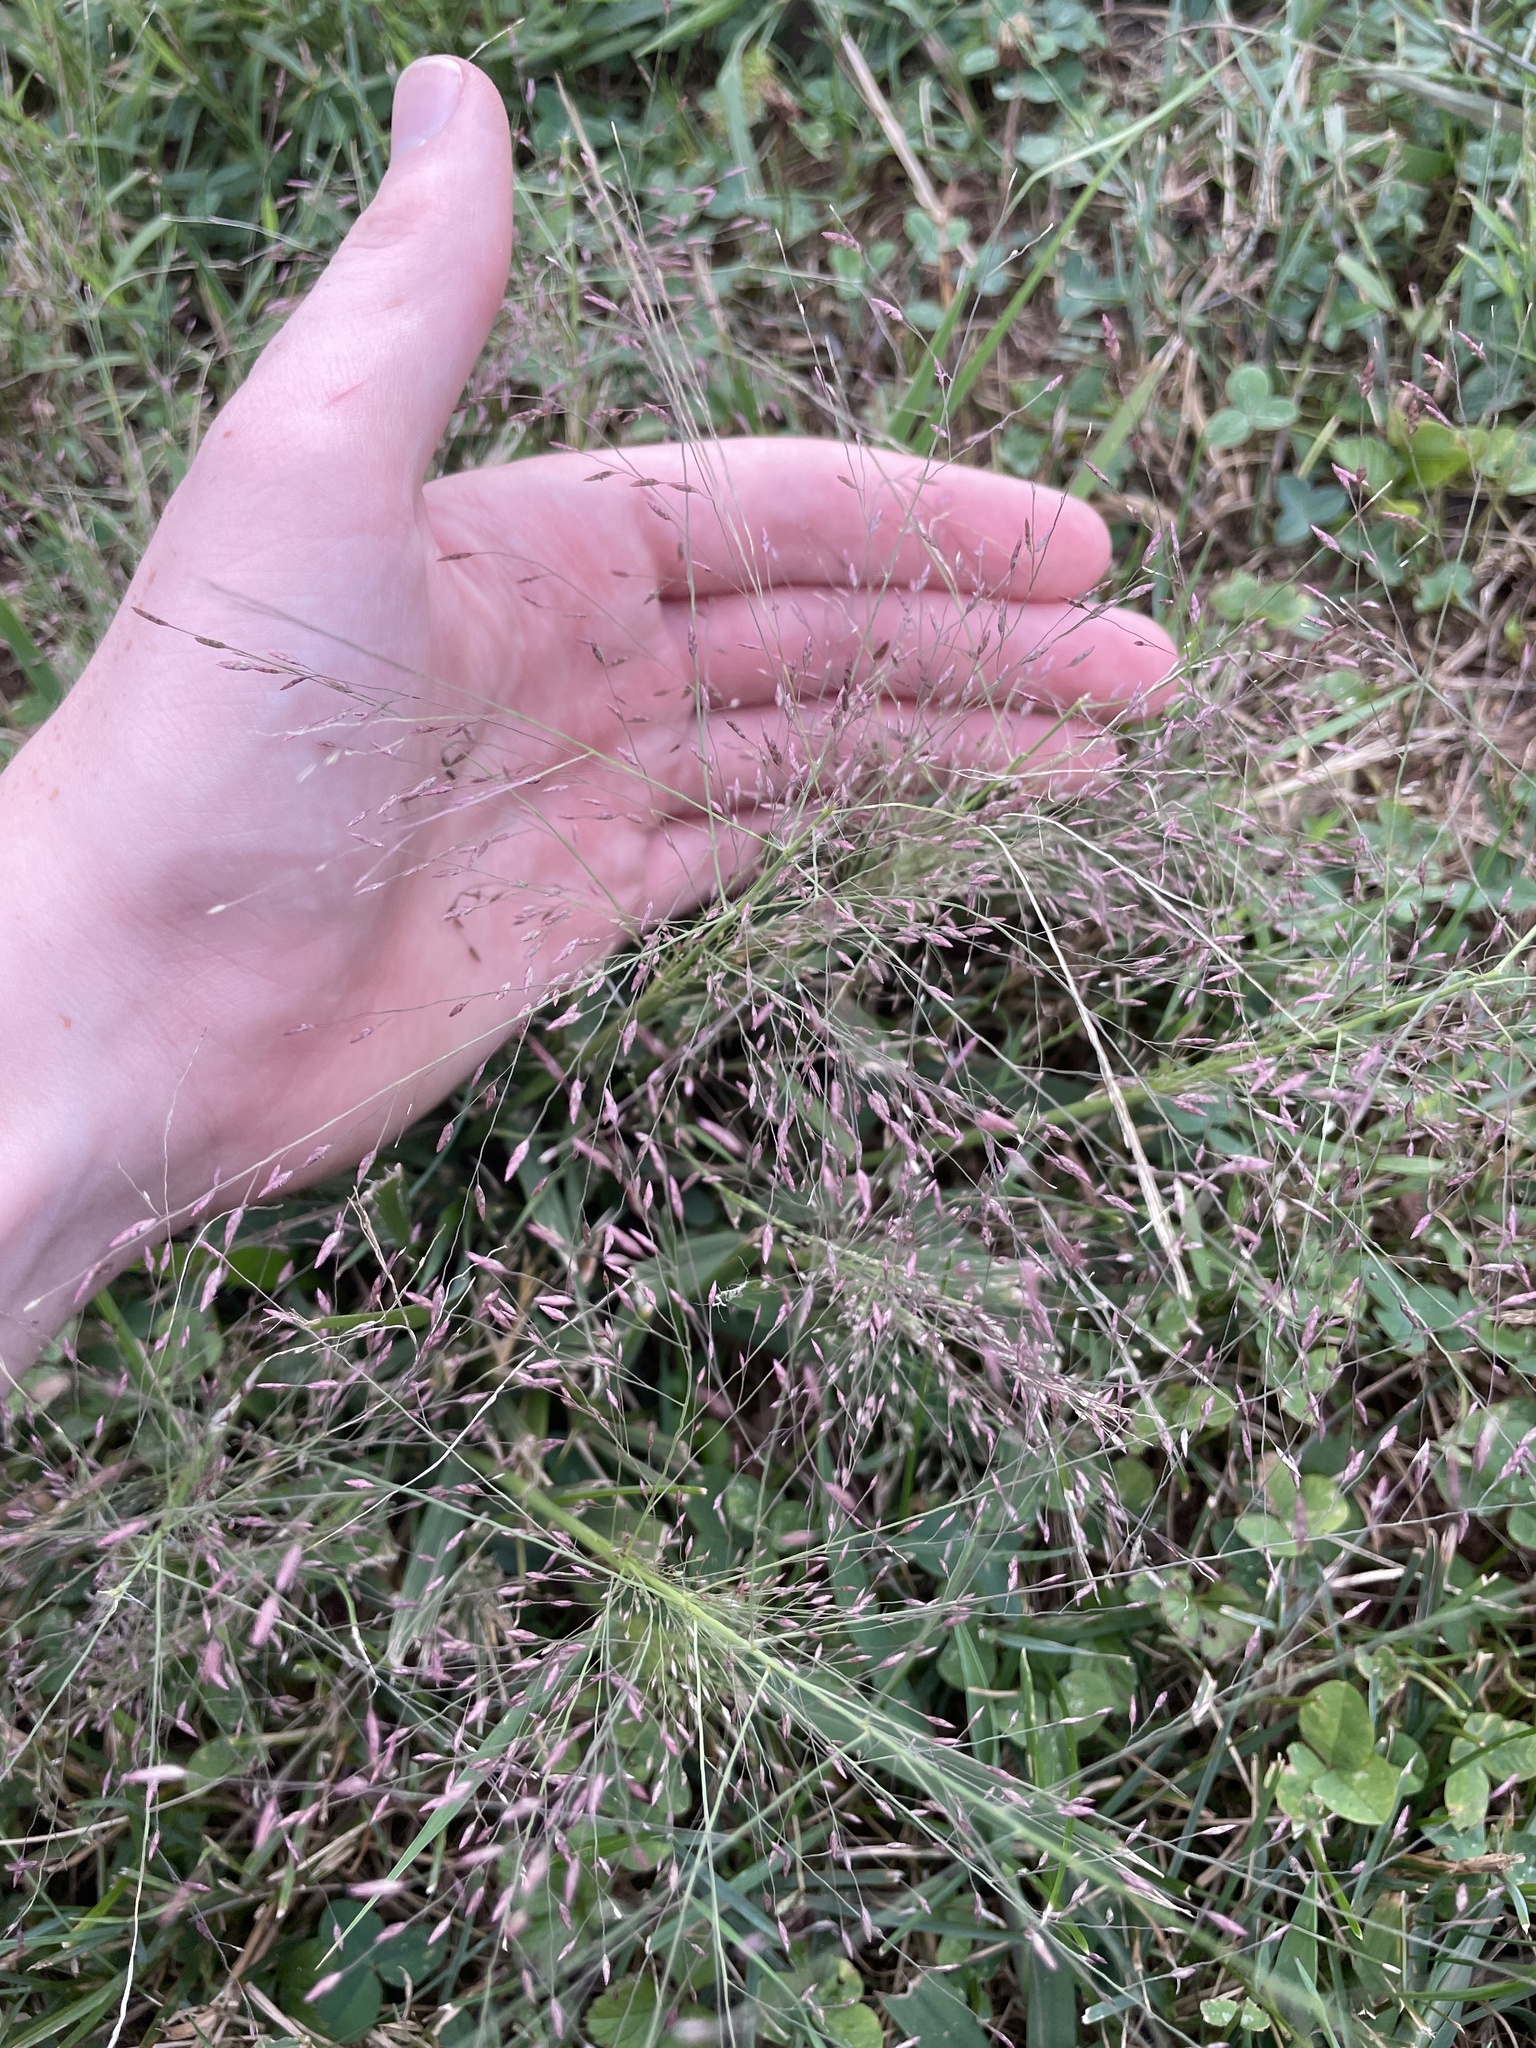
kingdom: Plantae
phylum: Tracheophyta
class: Liliopsida
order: Poales
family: Poaceae
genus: Eragrostis
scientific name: Eragrostis spectabilis
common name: Petticoat-climber
